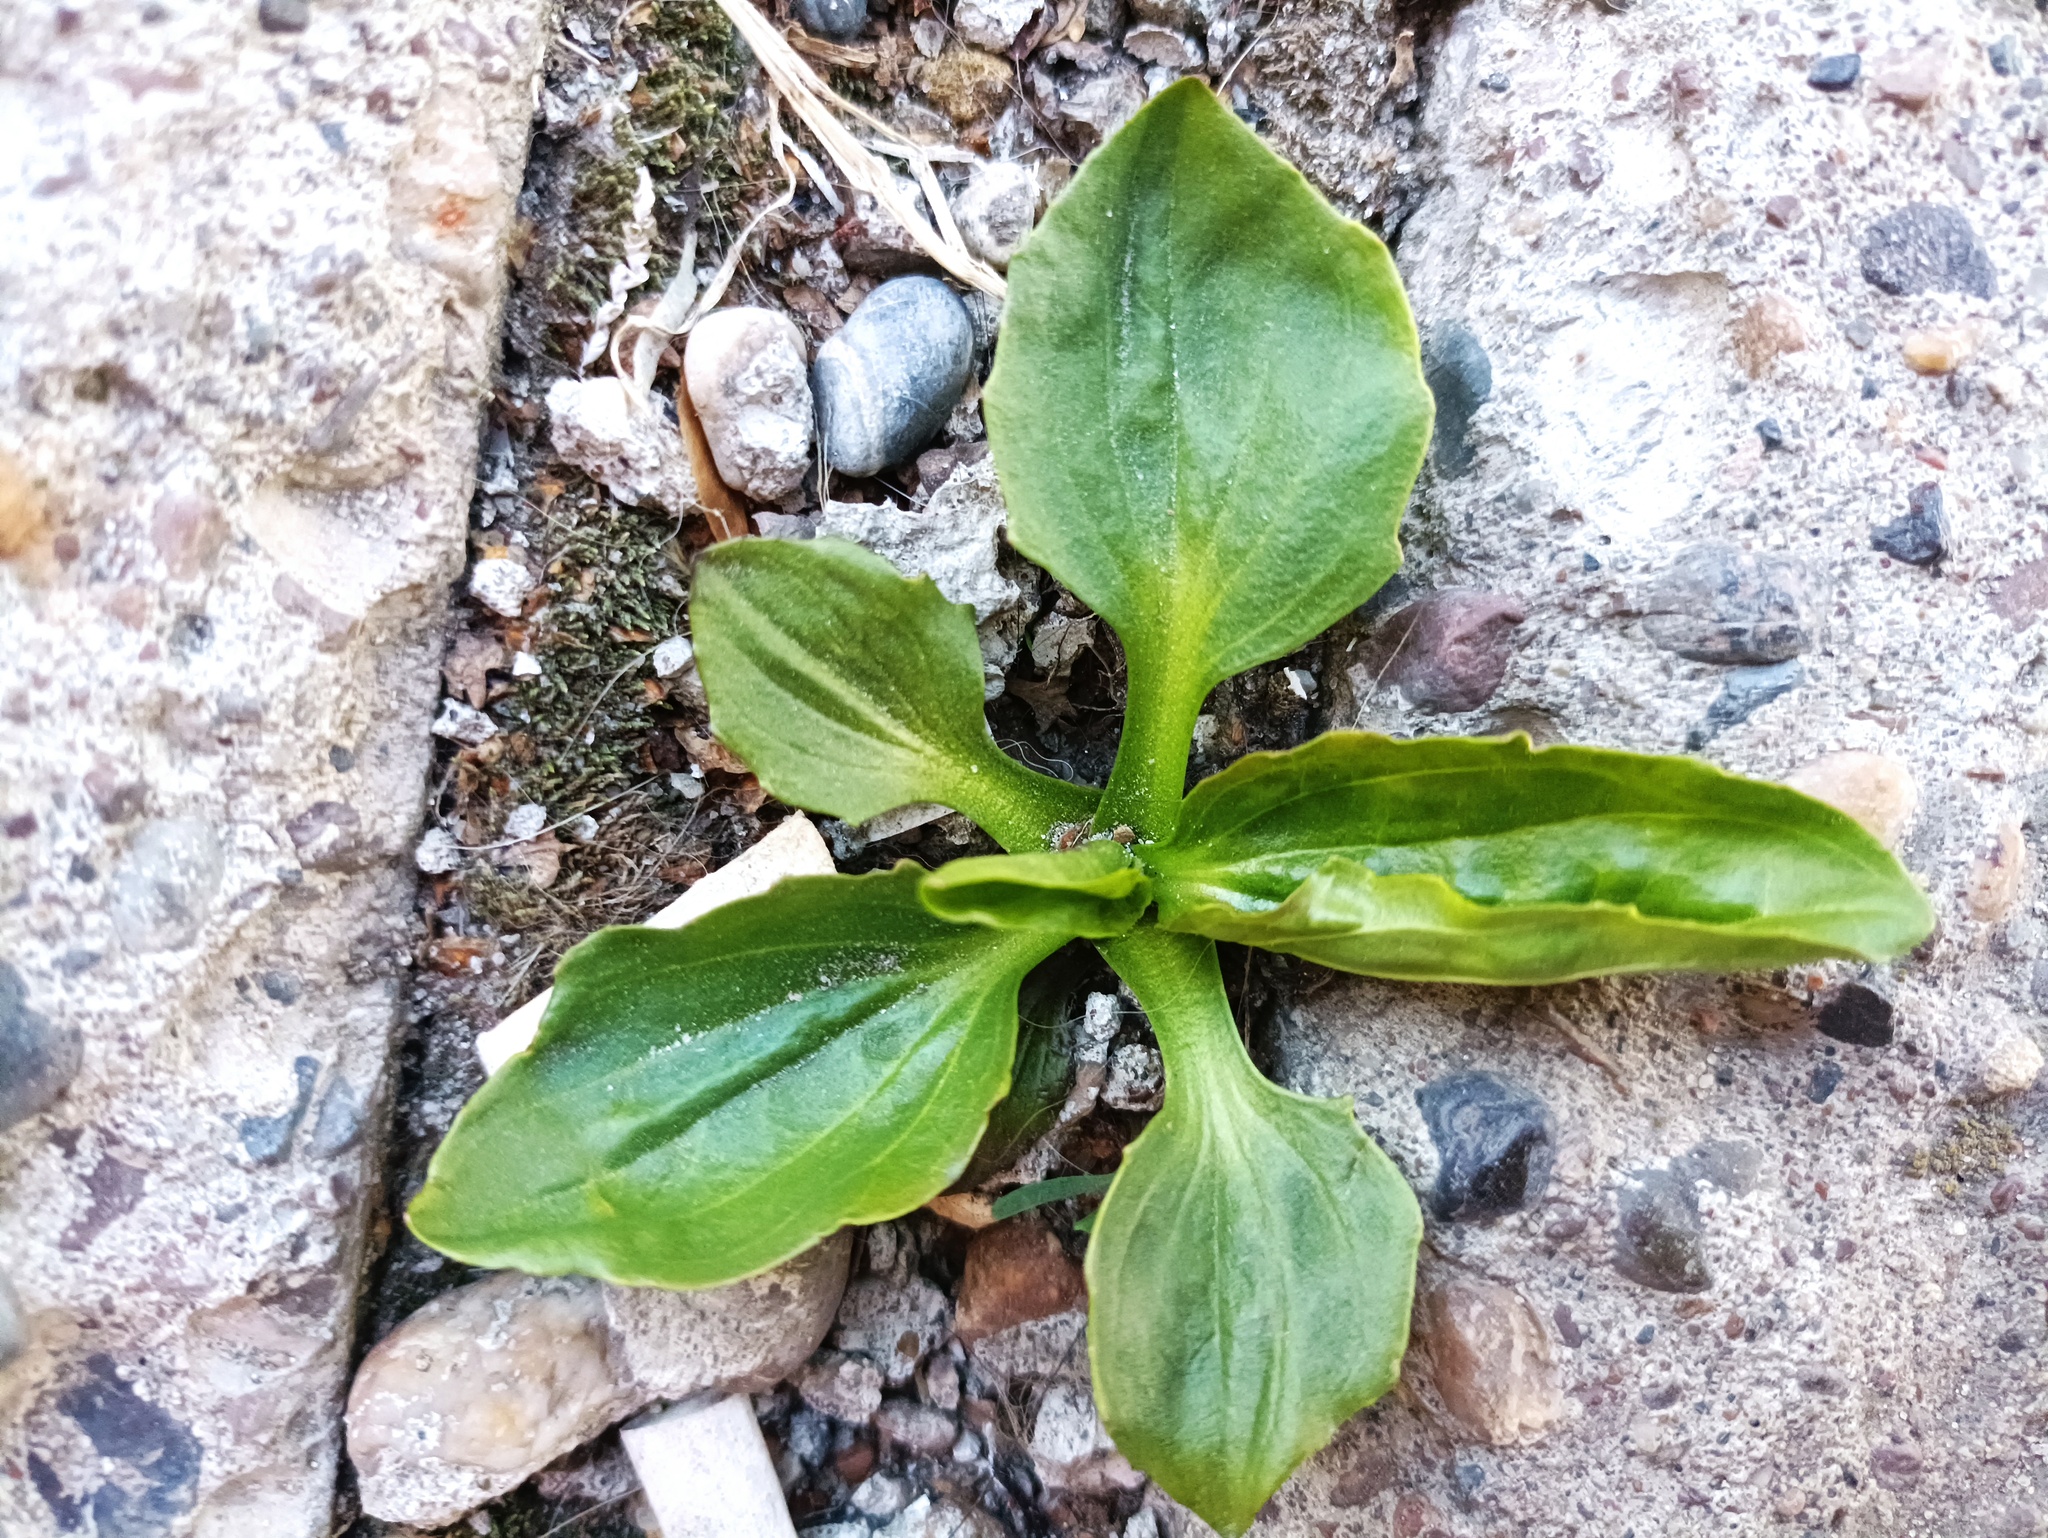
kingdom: Plantae
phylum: Tracheophyta
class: Magnoliopsida
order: Lamiales
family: Plantaginaceae
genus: Plantago
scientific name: Plantago major
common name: Common plantain
